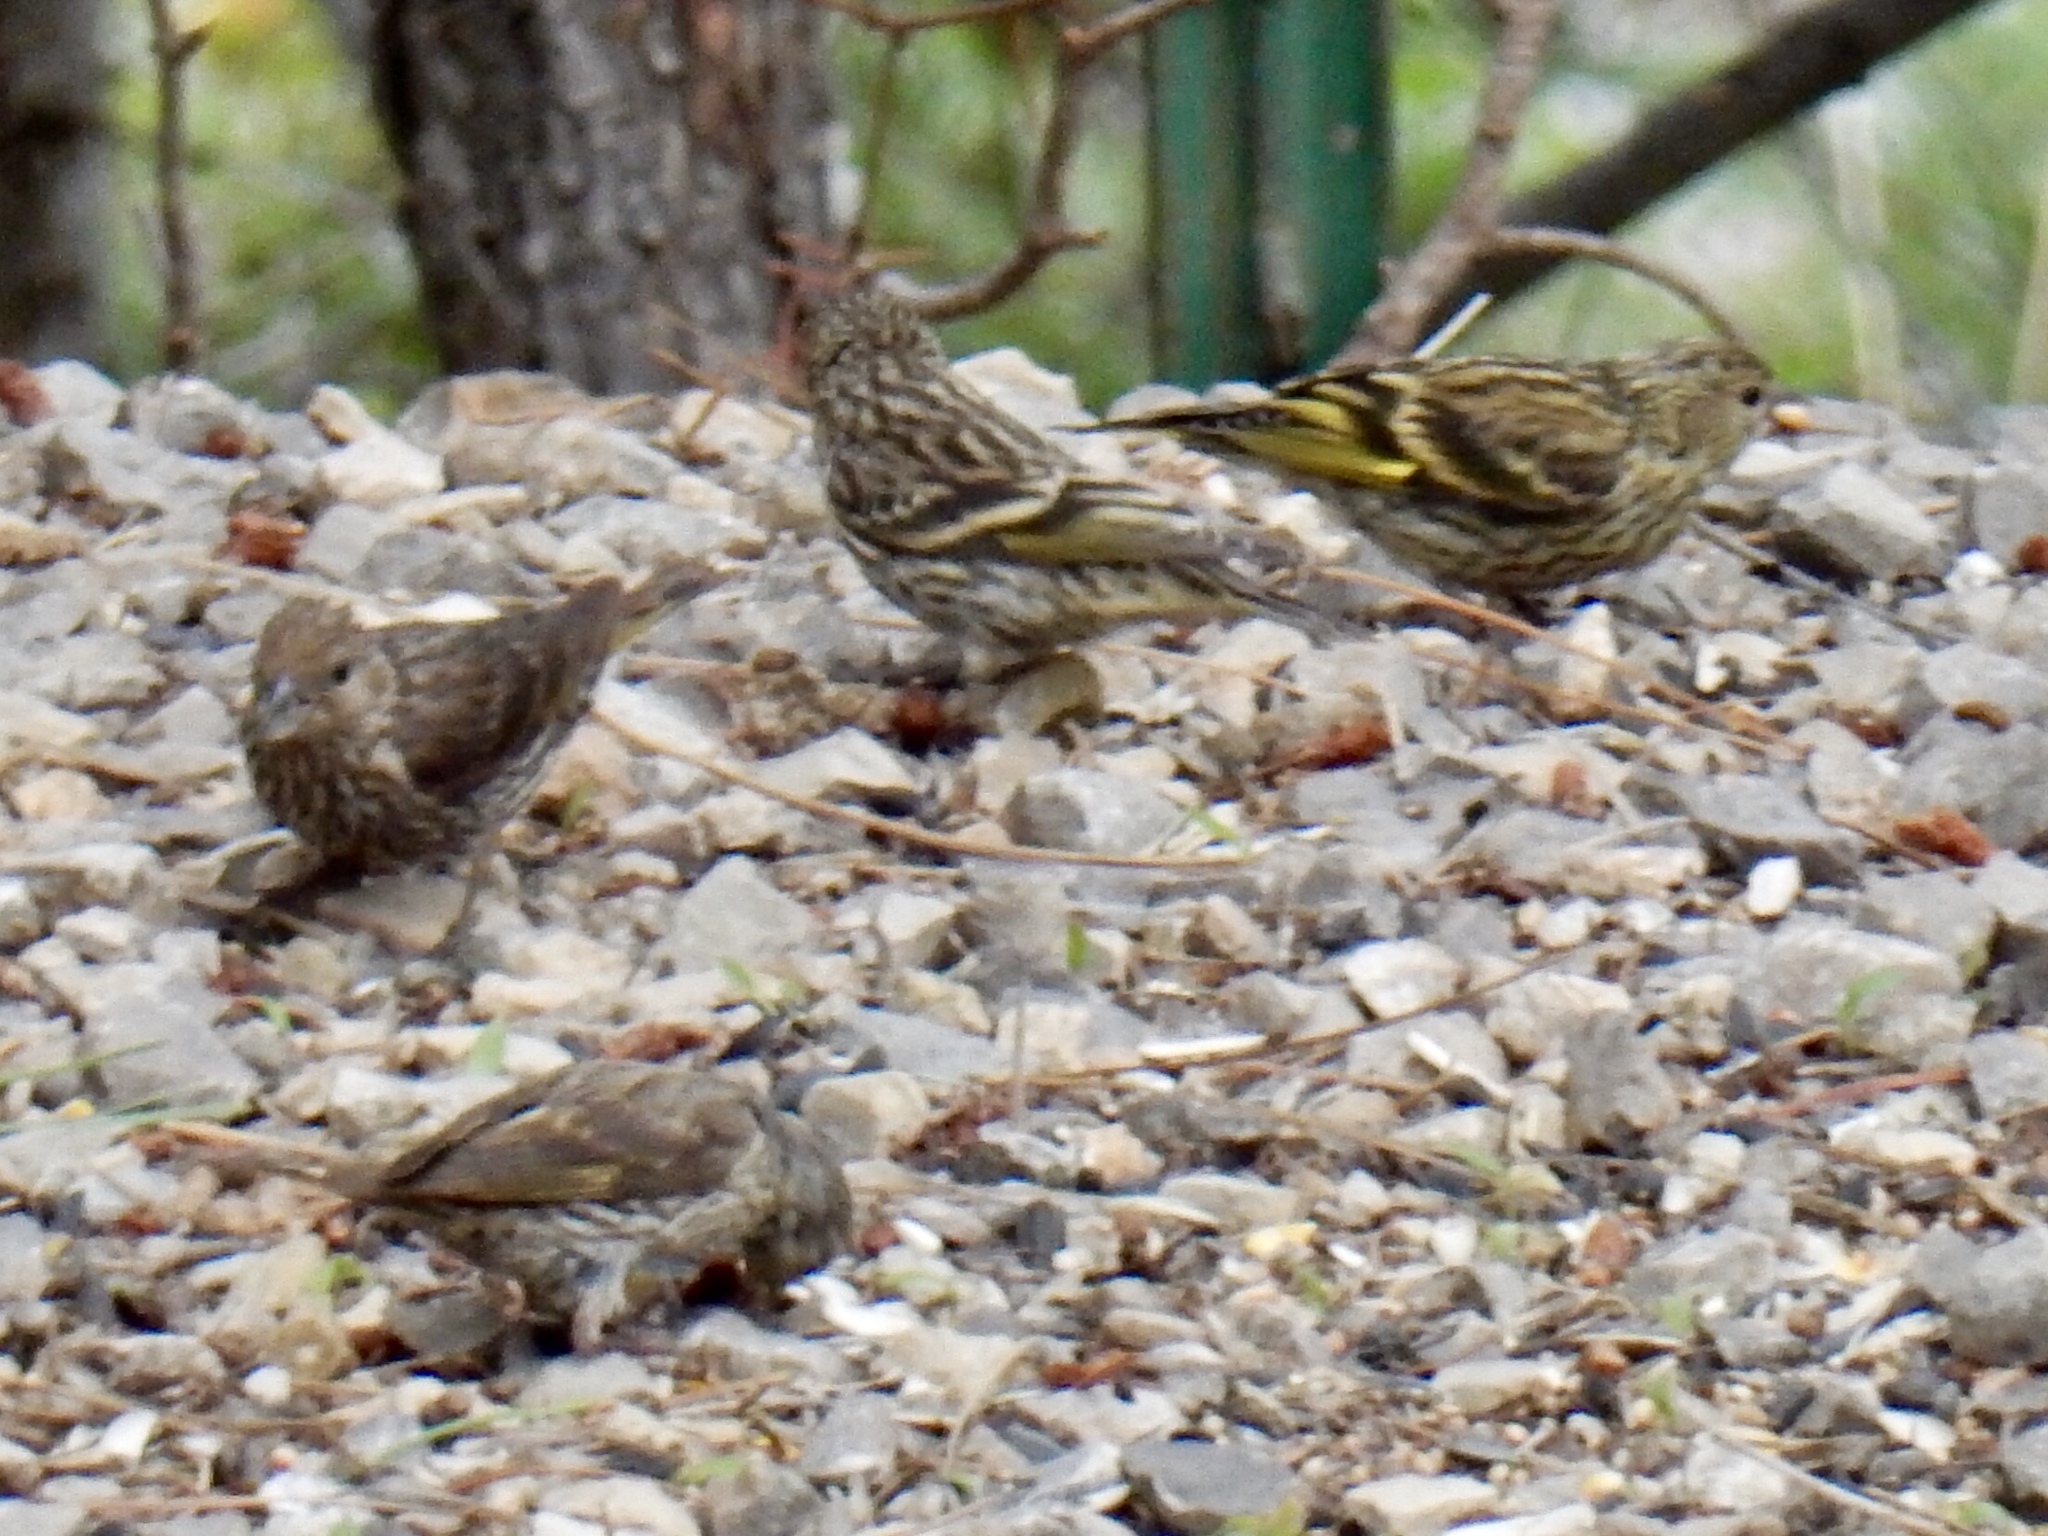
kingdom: Animalia
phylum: Chordata
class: Aves
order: Passeriformes
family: Fringillidae
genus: Spinus
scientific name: Spinus pinus
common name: Pine siskin
